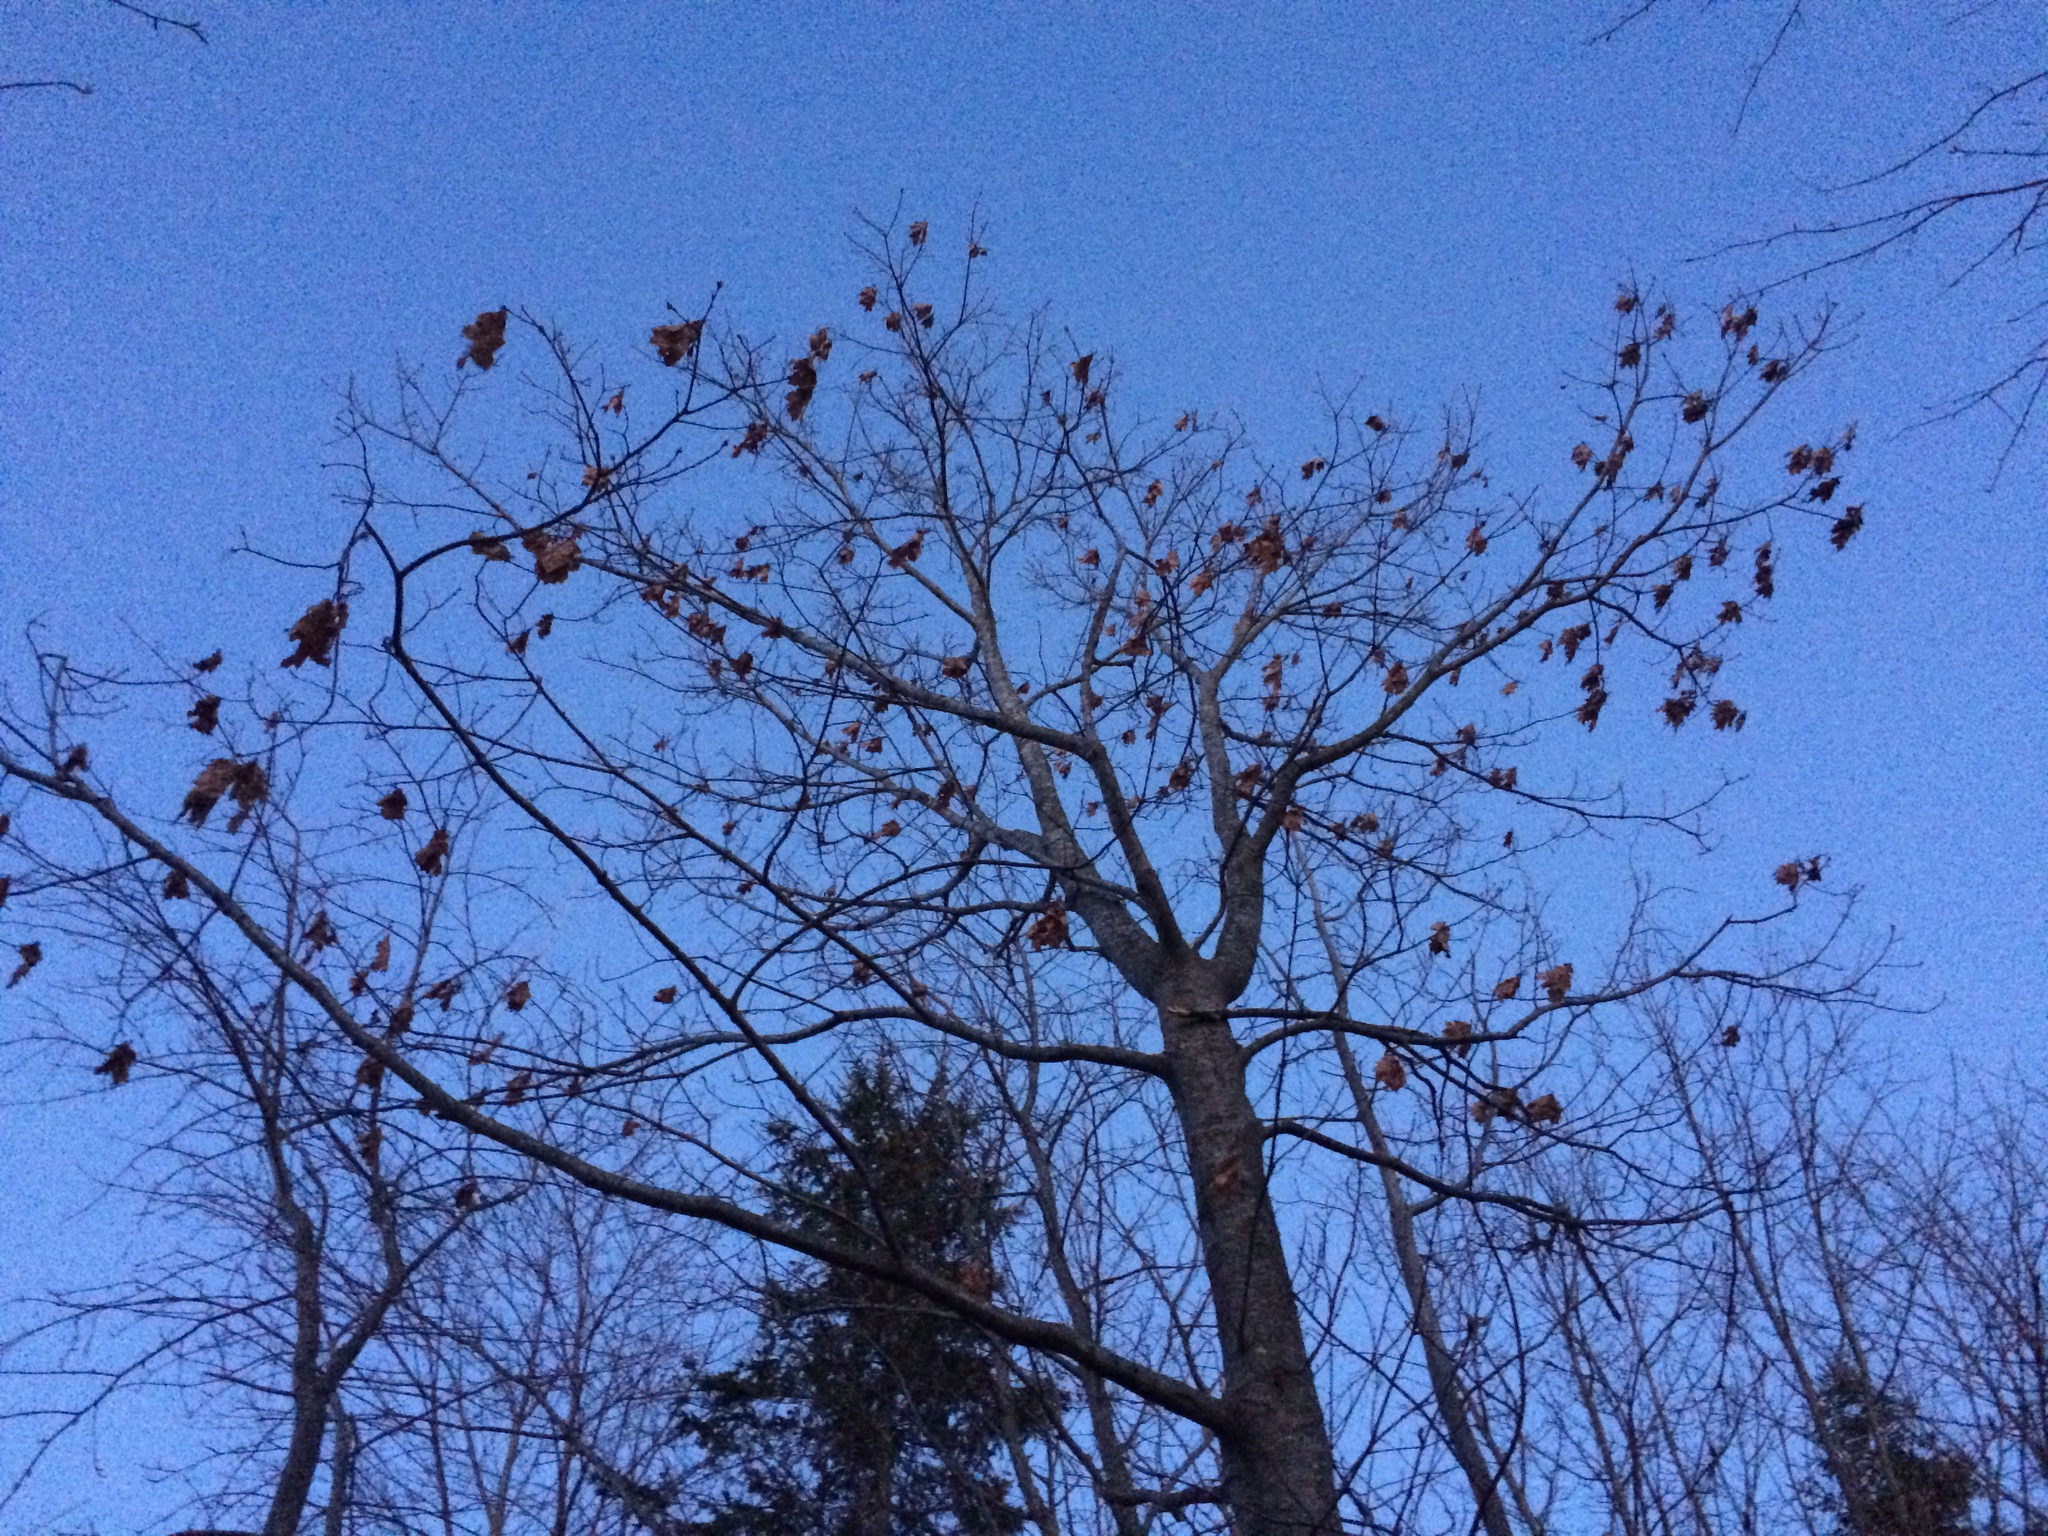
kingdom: Plantae
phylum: Tracheophyta
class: Magnoliopsida
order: Fagales
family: Fagaceae
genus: Quercus
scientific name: Quercus rubra
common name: Red oak
